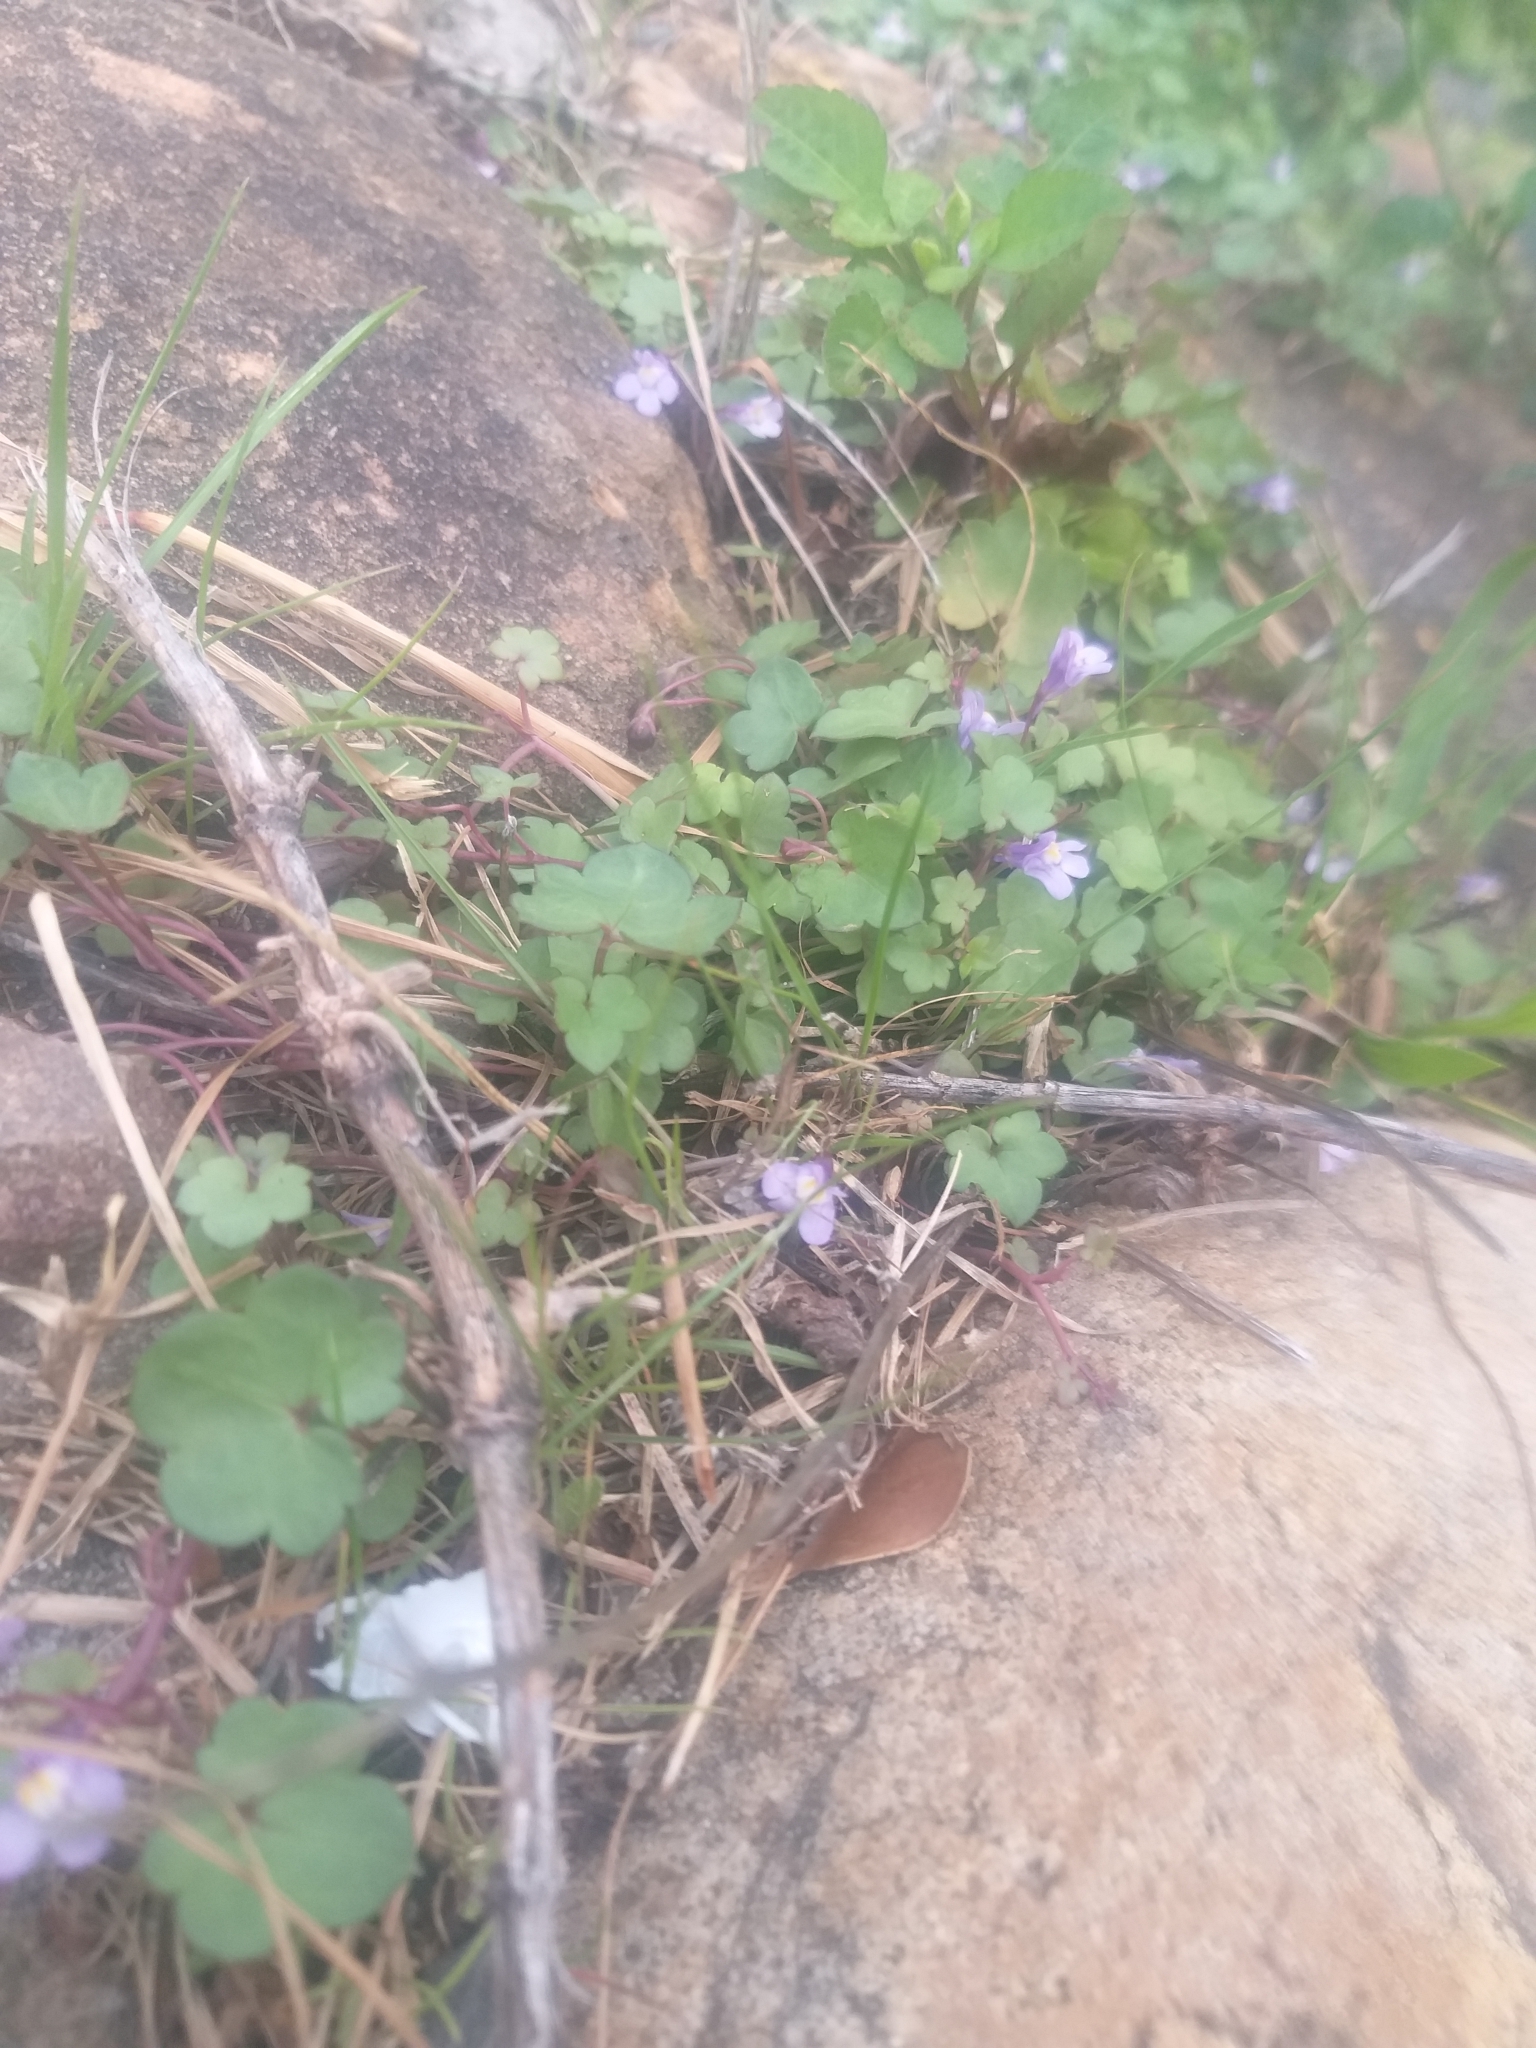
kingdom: Plantae
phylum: Tracheophyta
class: Magnoliopsida
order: Lamiales
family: Plantaginaceae
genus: Cymbalaria
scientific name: Cymbalaria muralis
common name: Ivy-leaved toadflax
